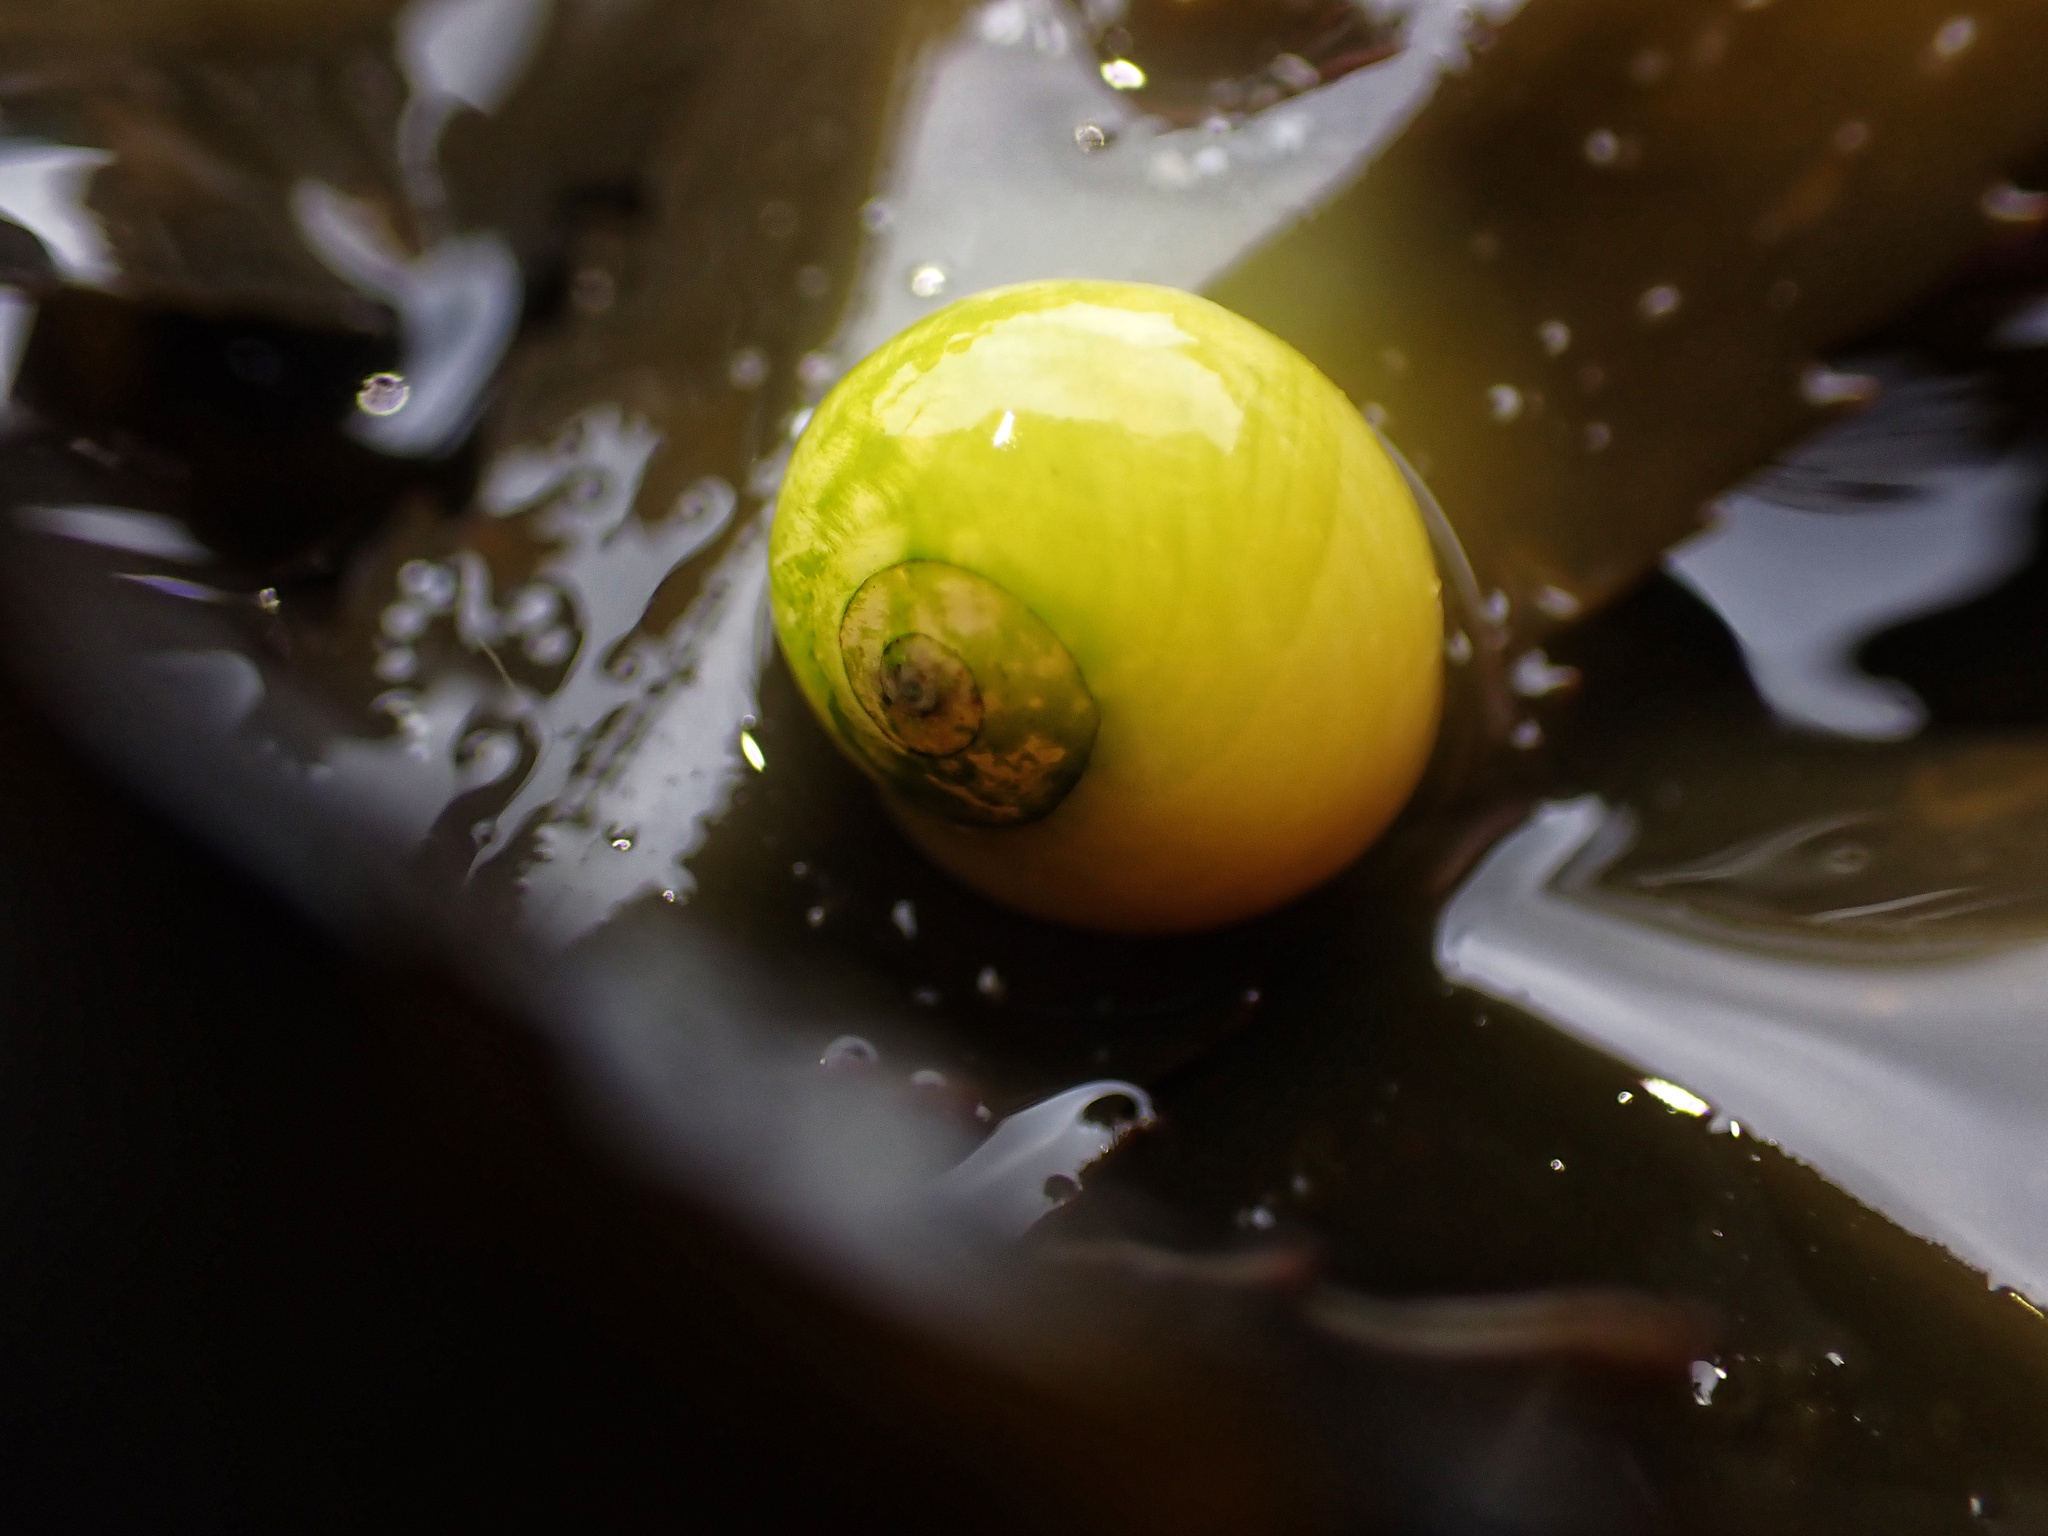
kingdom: Animalia
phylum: Mollusca
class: Gastropoda
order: Littorinimorpha
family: Littorinidae
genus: Littorina
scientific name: Littorina obtusata
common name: Flat periwinkle
